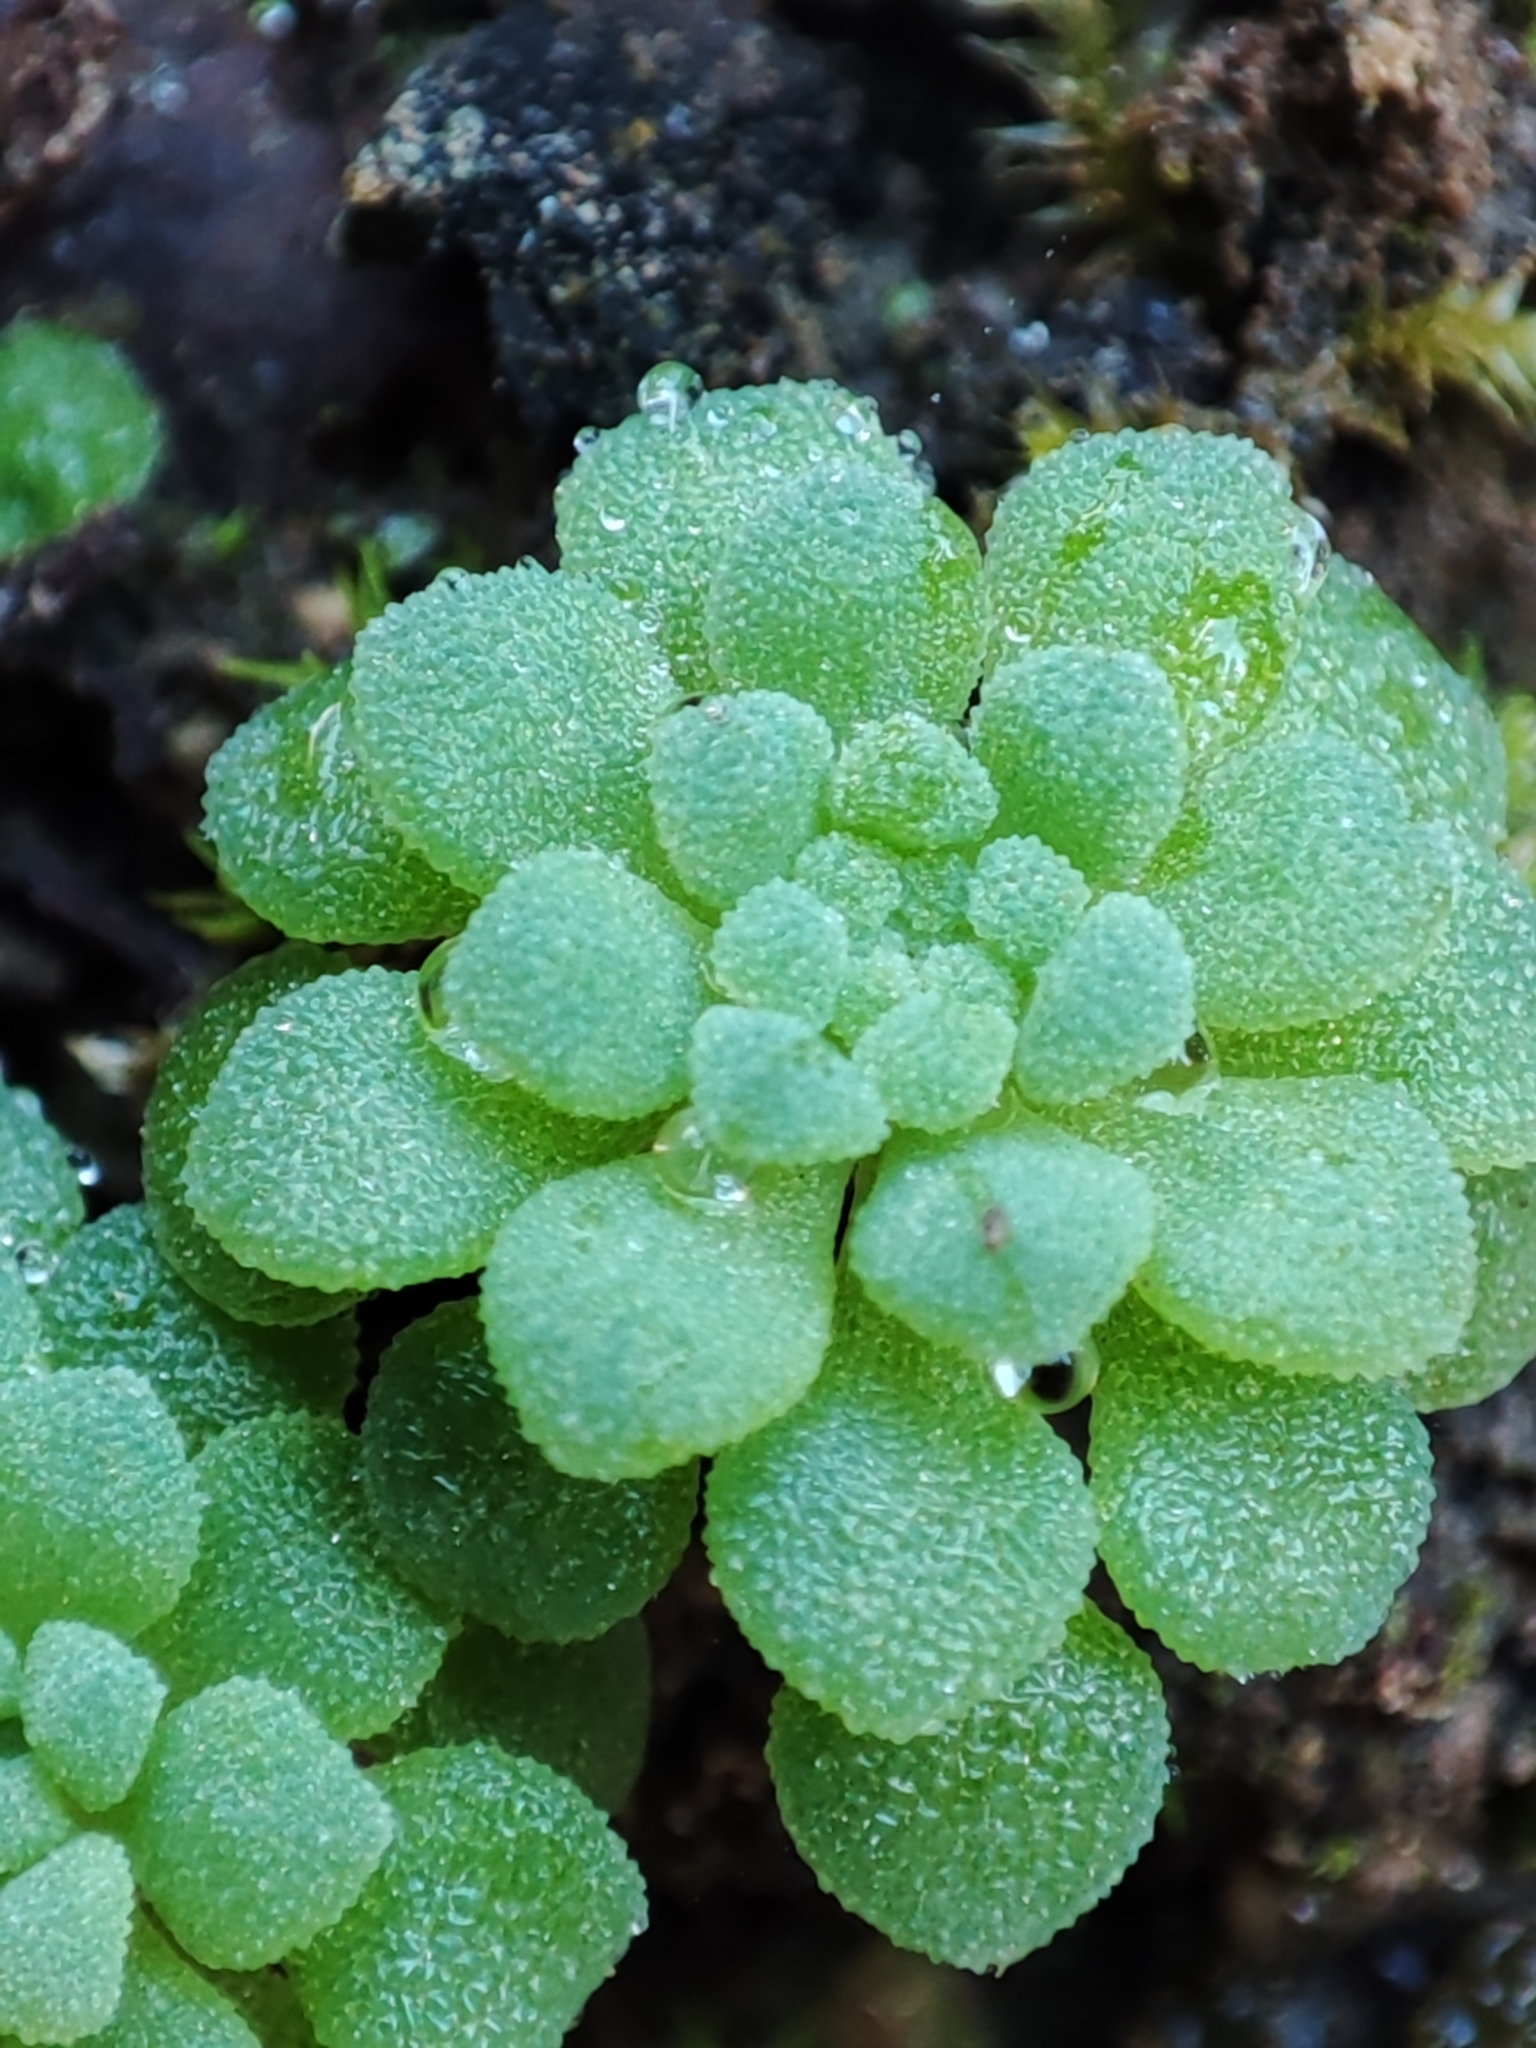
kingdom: Plantae
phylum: Tracheophyta
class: Magnoliopsida
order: Saxifragales
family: Crassulaceae
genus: Sedum
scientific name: Sedum rubens
